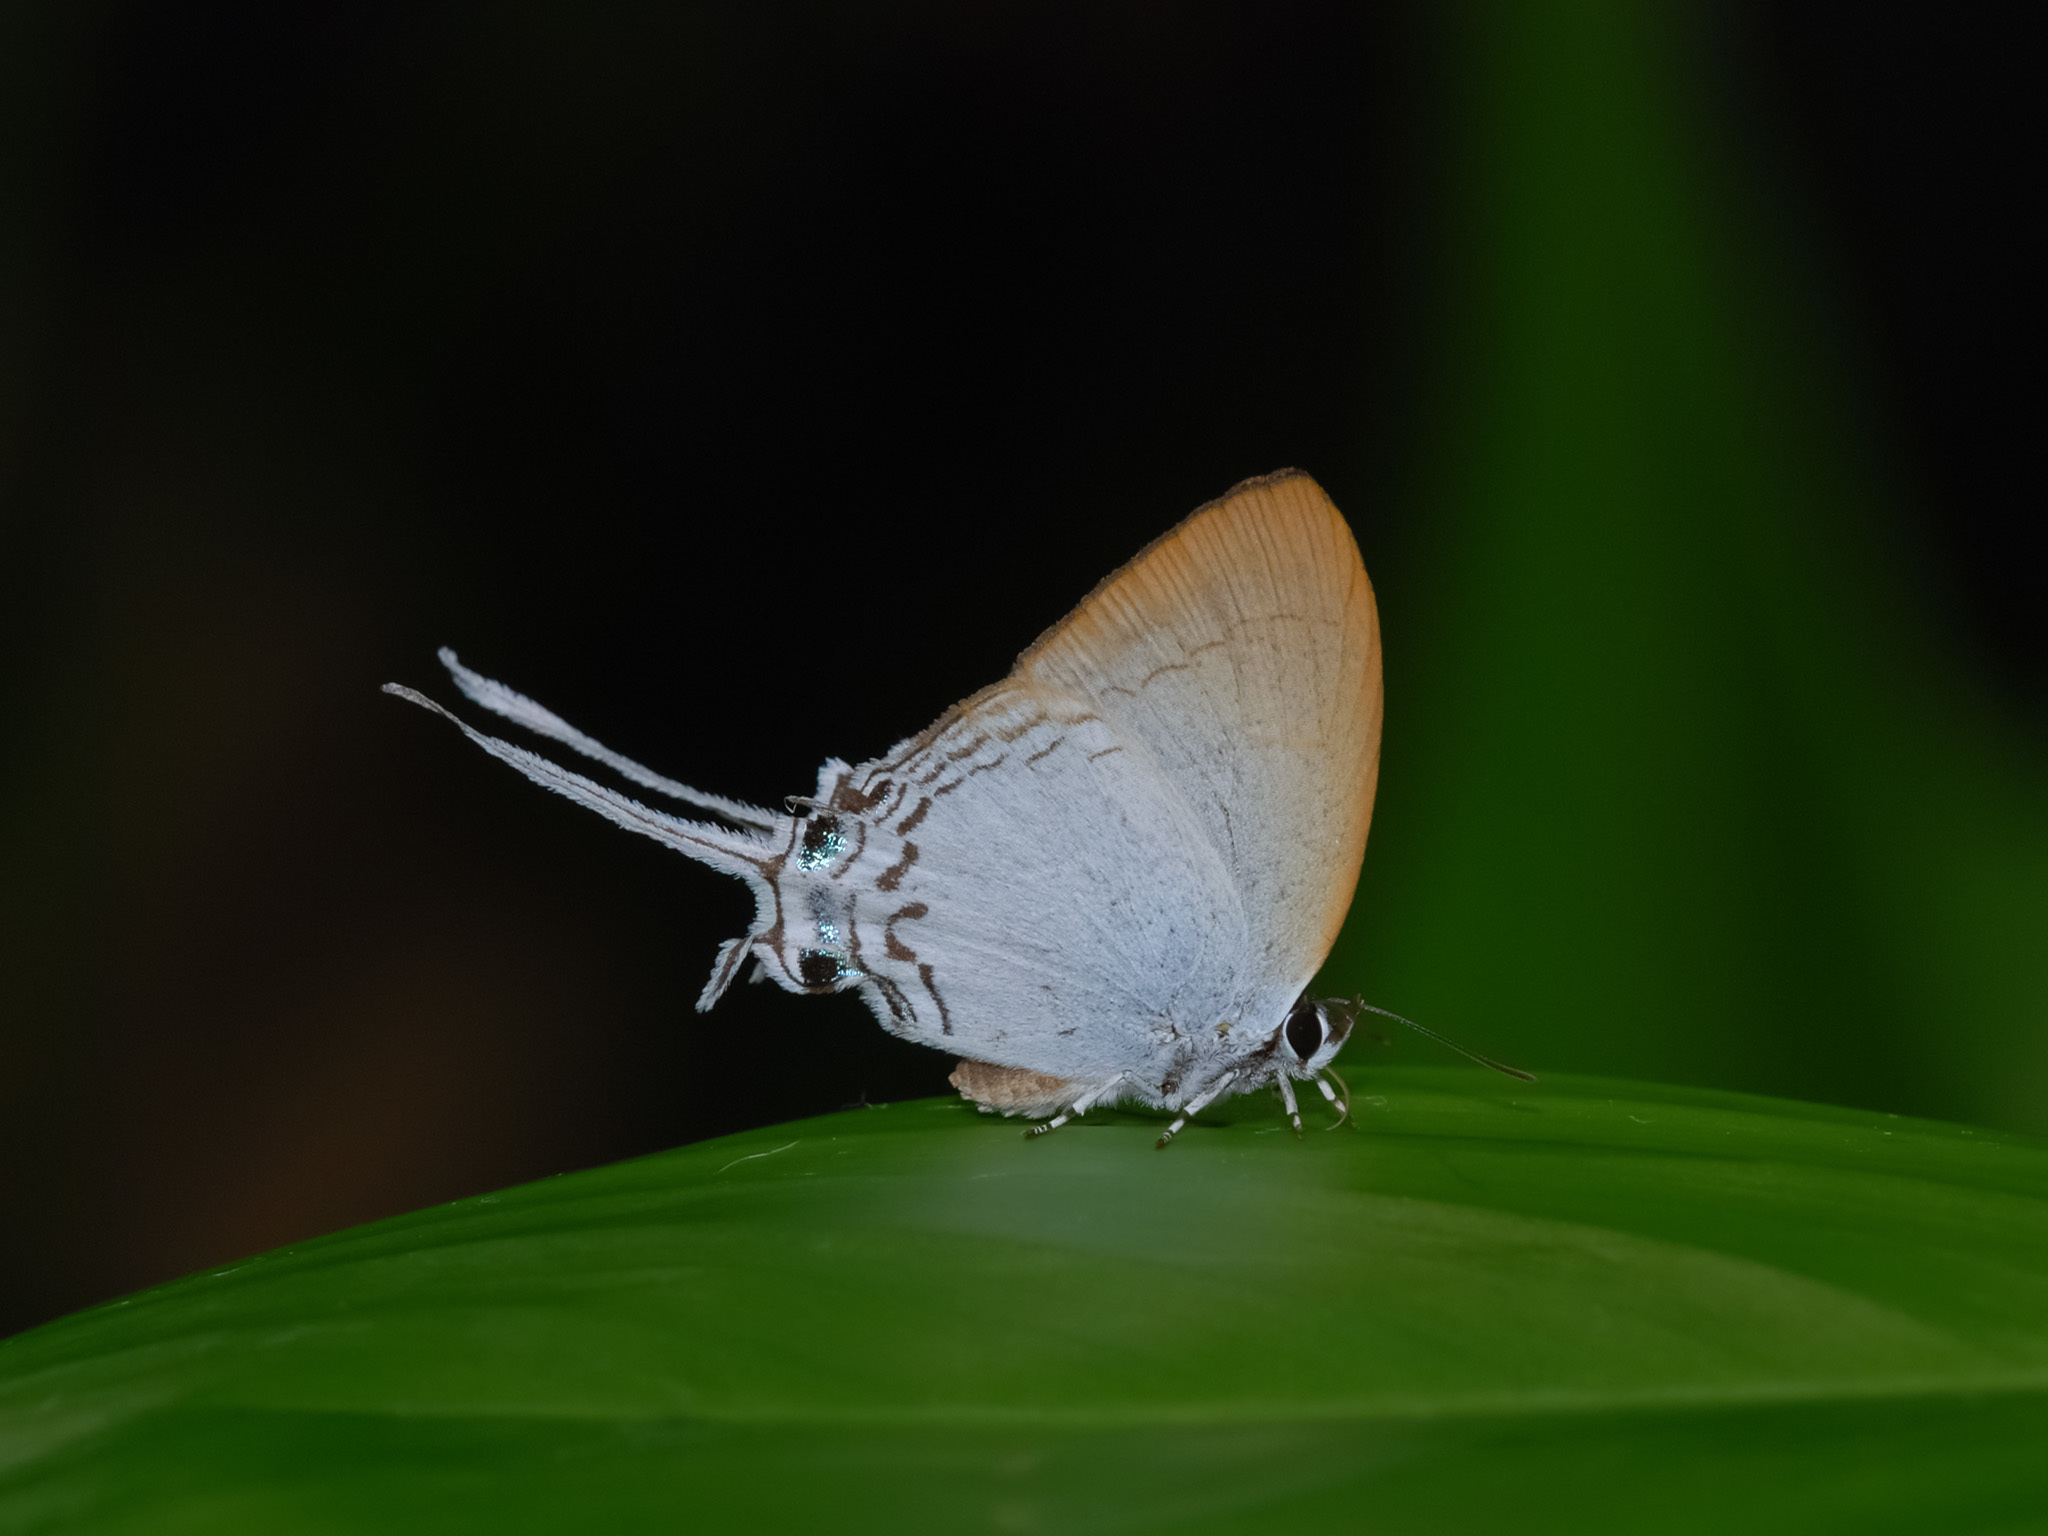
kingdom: Animalia
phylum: Arthropoda
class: Insecta
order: Lepidoptera
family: Lycaenidae
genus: Cheritra
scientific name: Cheritra freja
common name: Common imperial
